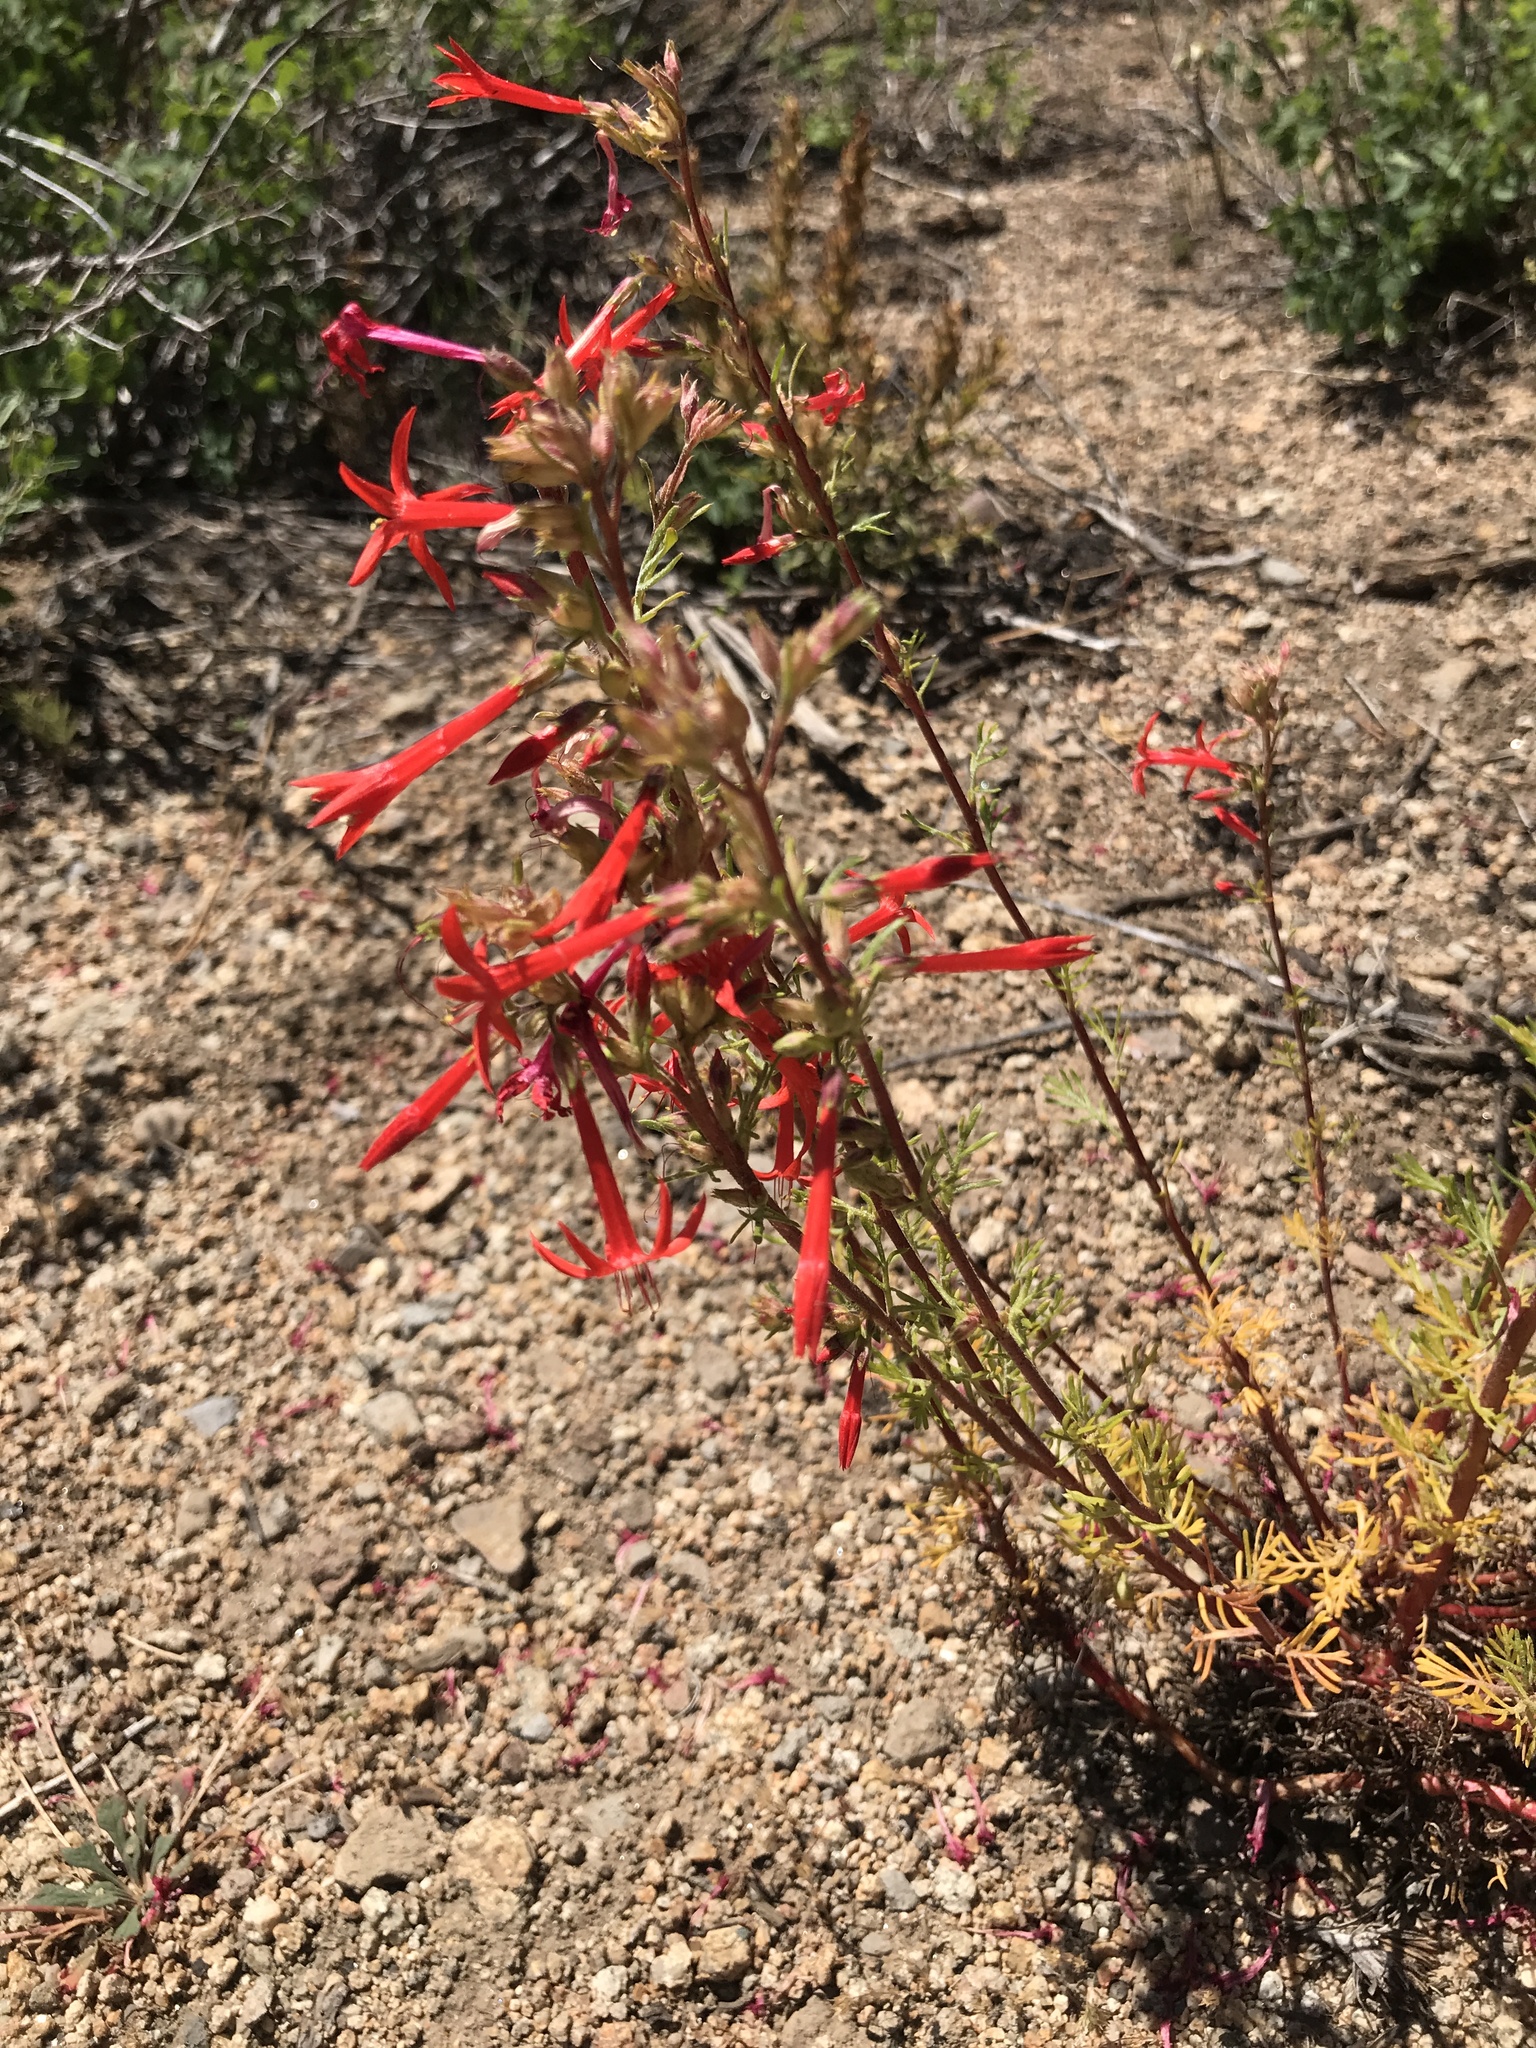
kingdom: Plantae
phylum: Tracheophyta
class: Magnoliopsida
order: Ericales
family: Polemoniaceae
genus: Ipomopsis
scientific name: Ipomopsis aggregata
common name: Scarlet gilia
